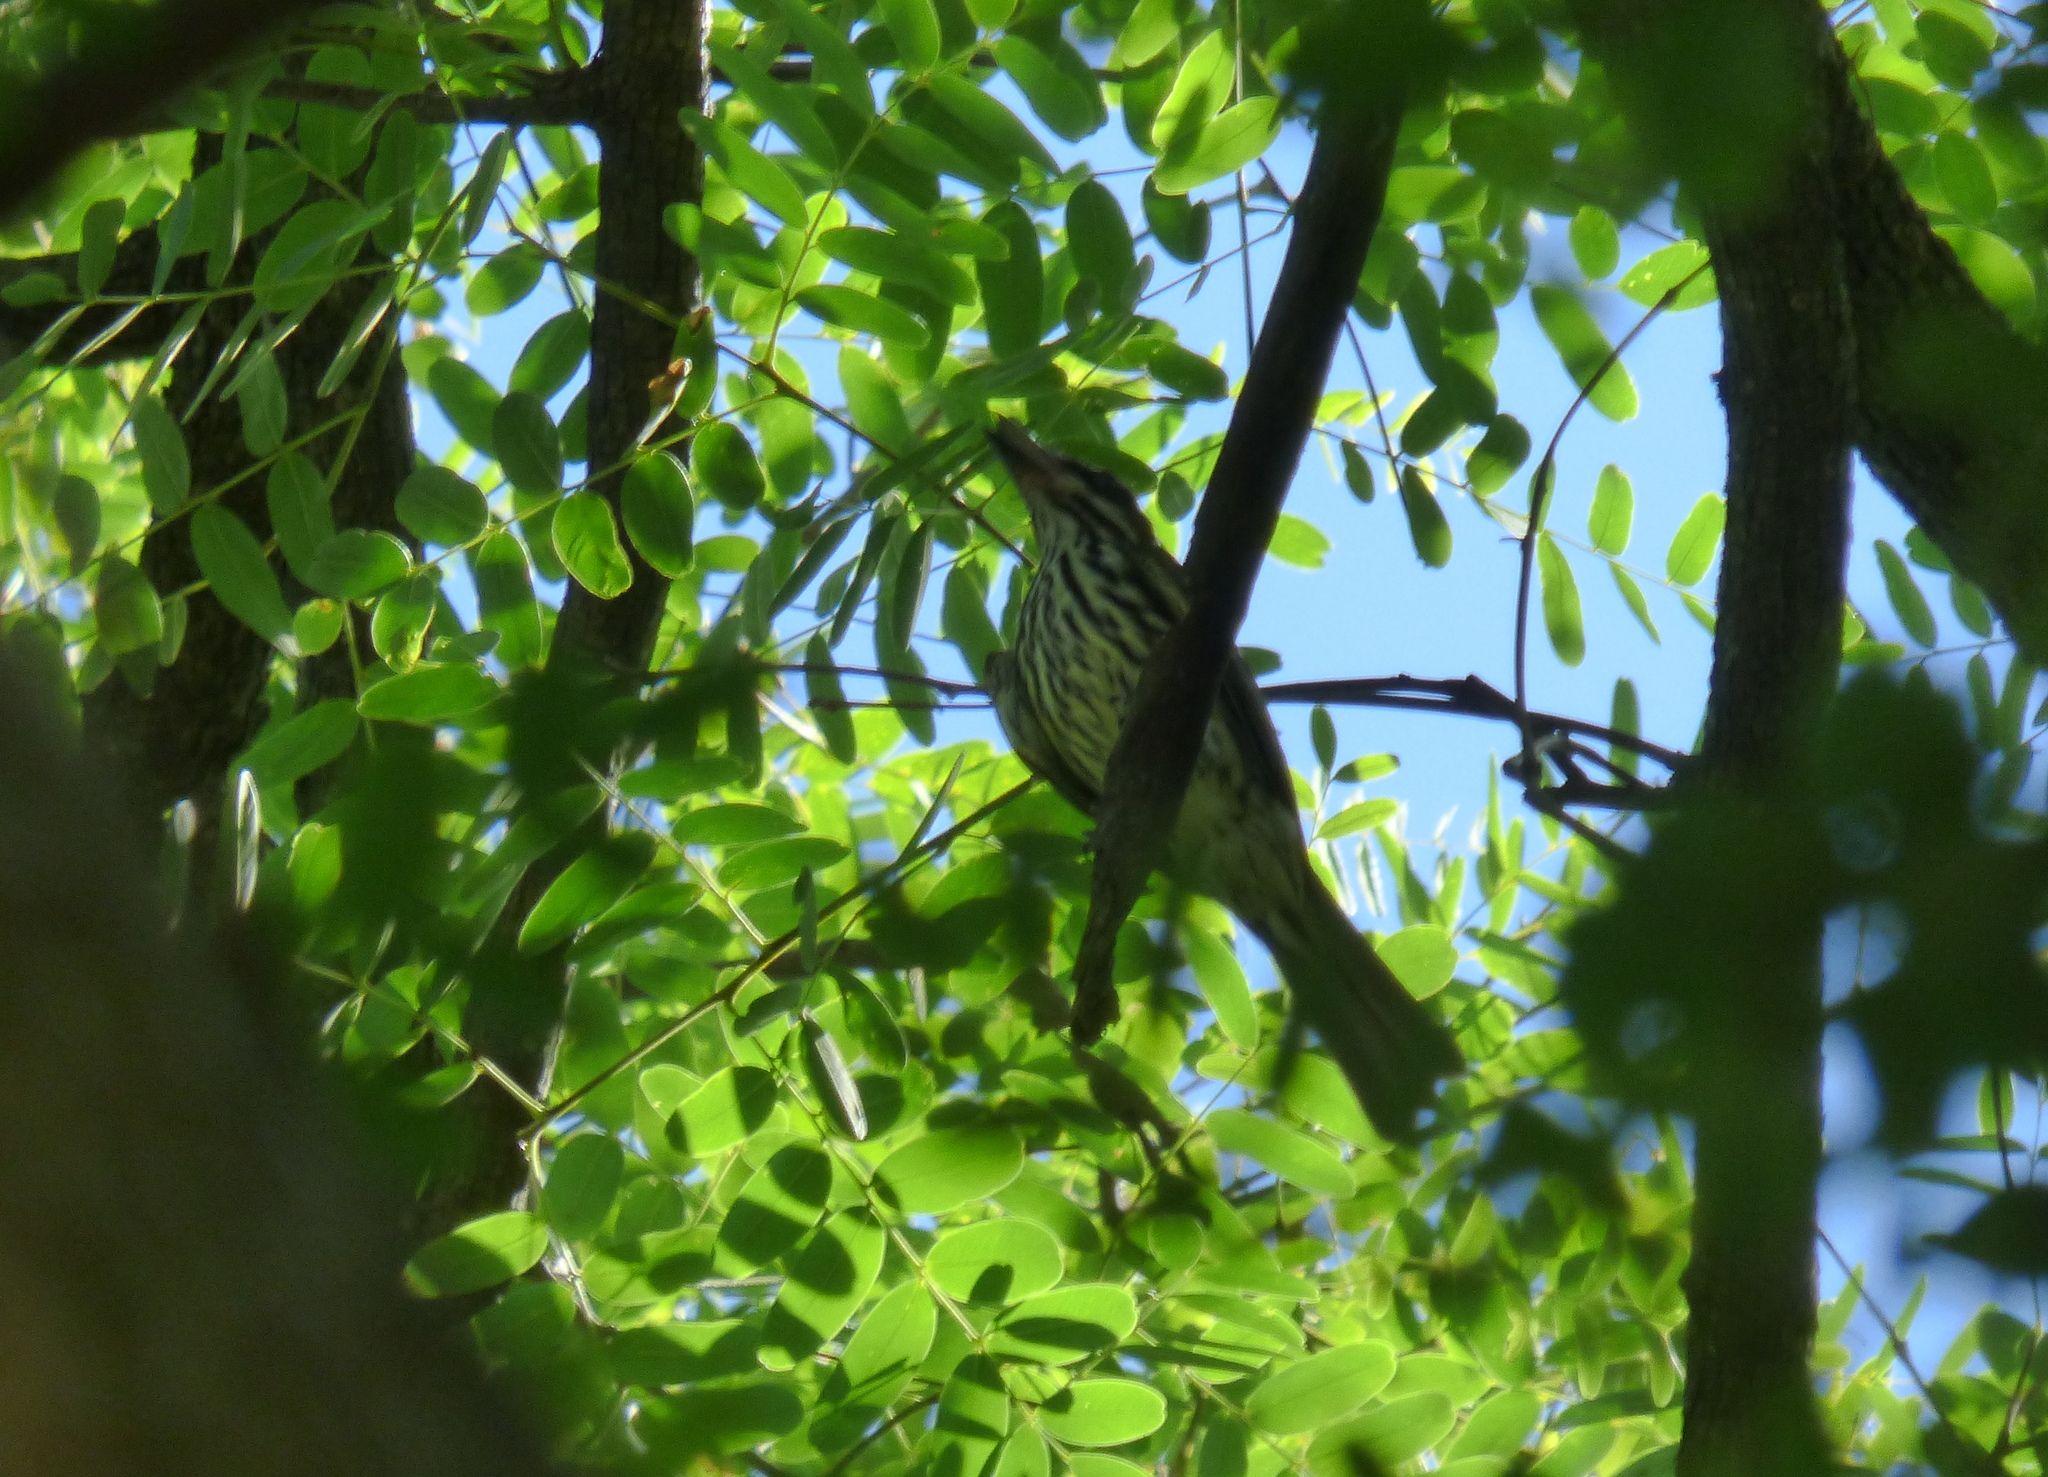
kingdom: Animalia
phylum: Chordata
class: Aves
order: Passeriformes
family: Tyrannidae
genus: Myiodynastes
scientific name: Myiodynastes maculatus
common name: Streaked flycatcher
